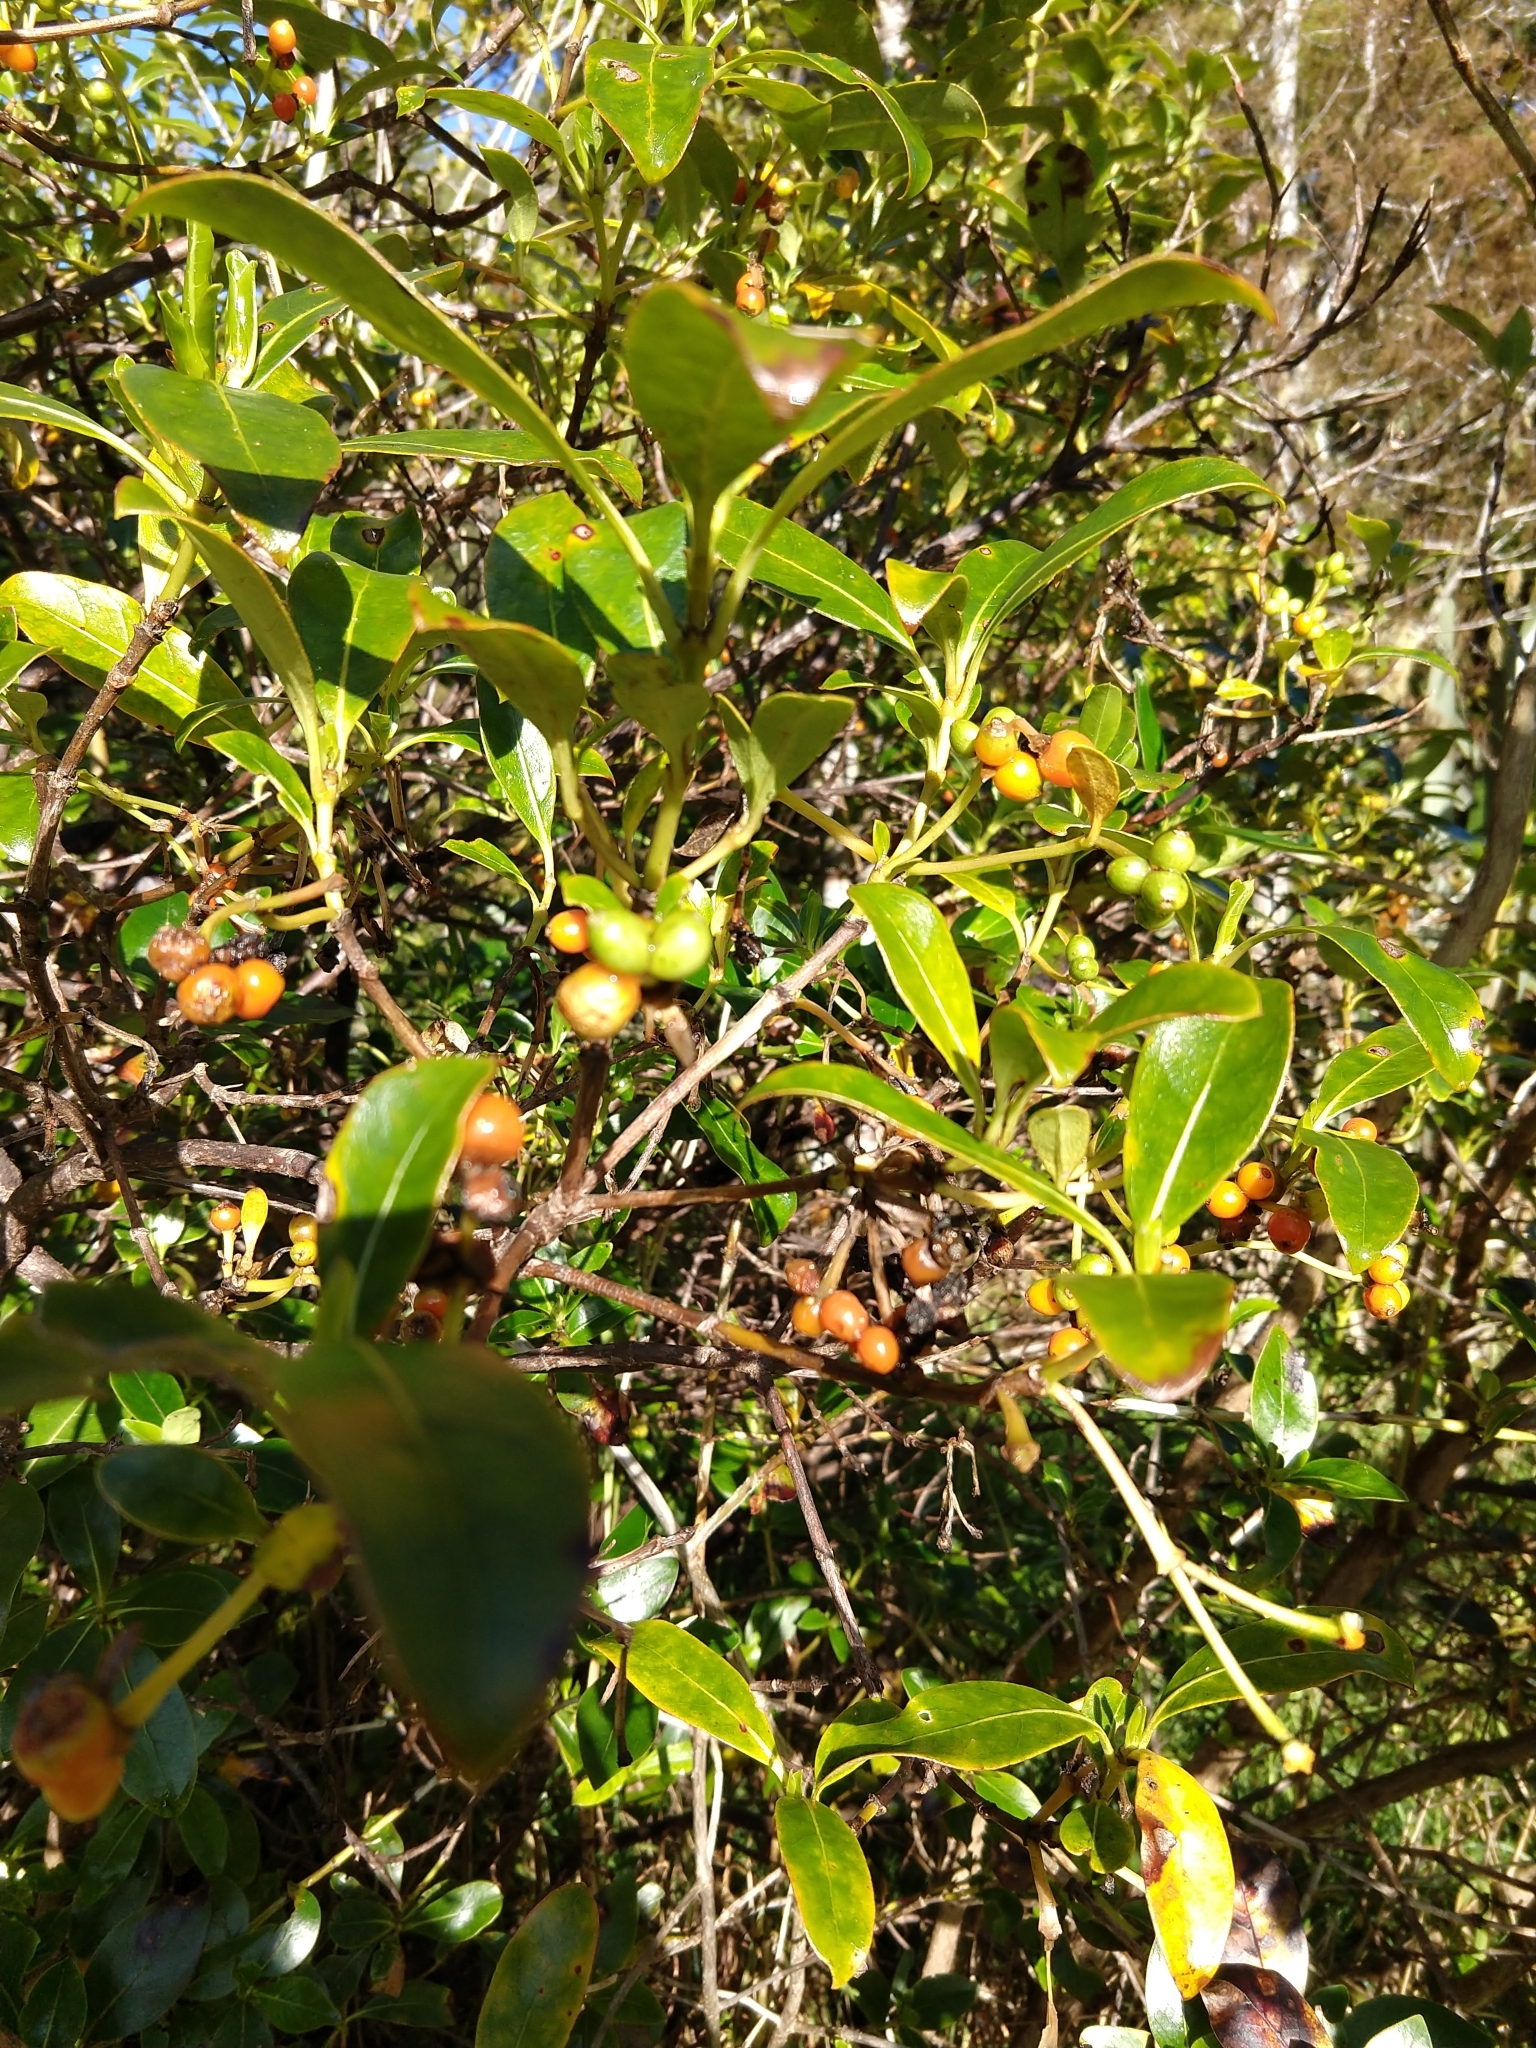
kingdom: Plantae
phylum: Tracheophyta
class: Magnoliopsida
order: Gentianales
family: Rubiaceae
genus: Coprosma
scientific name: Coprosma lucida
